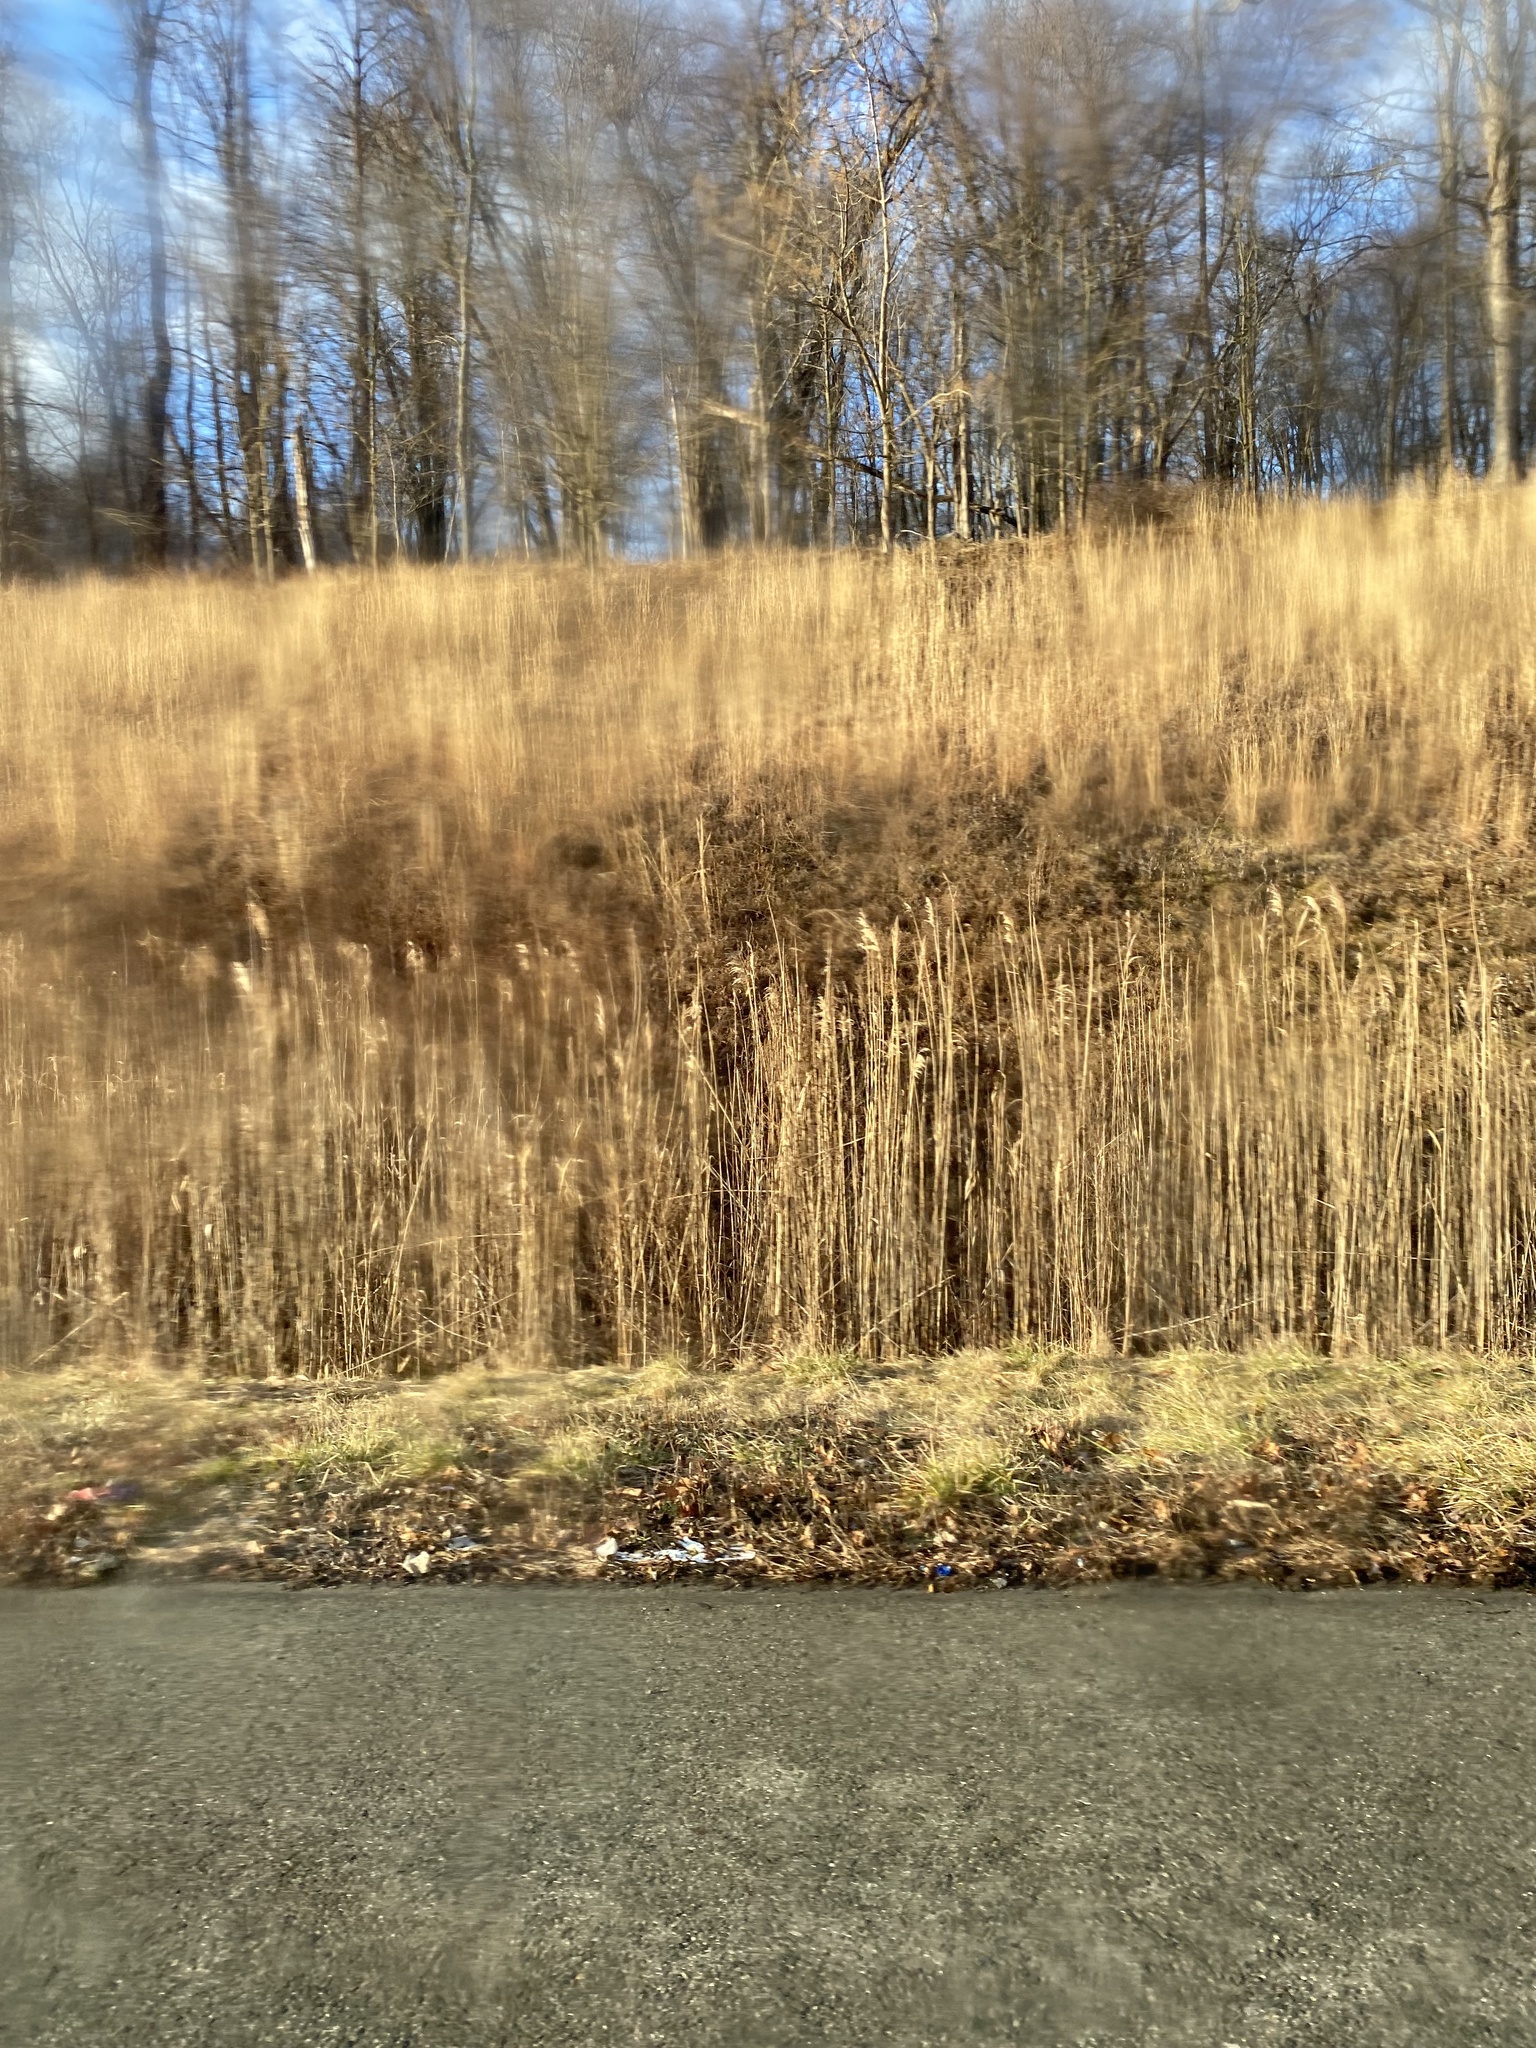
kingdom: Plantae
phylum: Tracheophyta
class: Liliopsida
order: Poales
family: Poaceae
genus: Phragmites
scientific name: Phragmites australis
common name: Common reed
